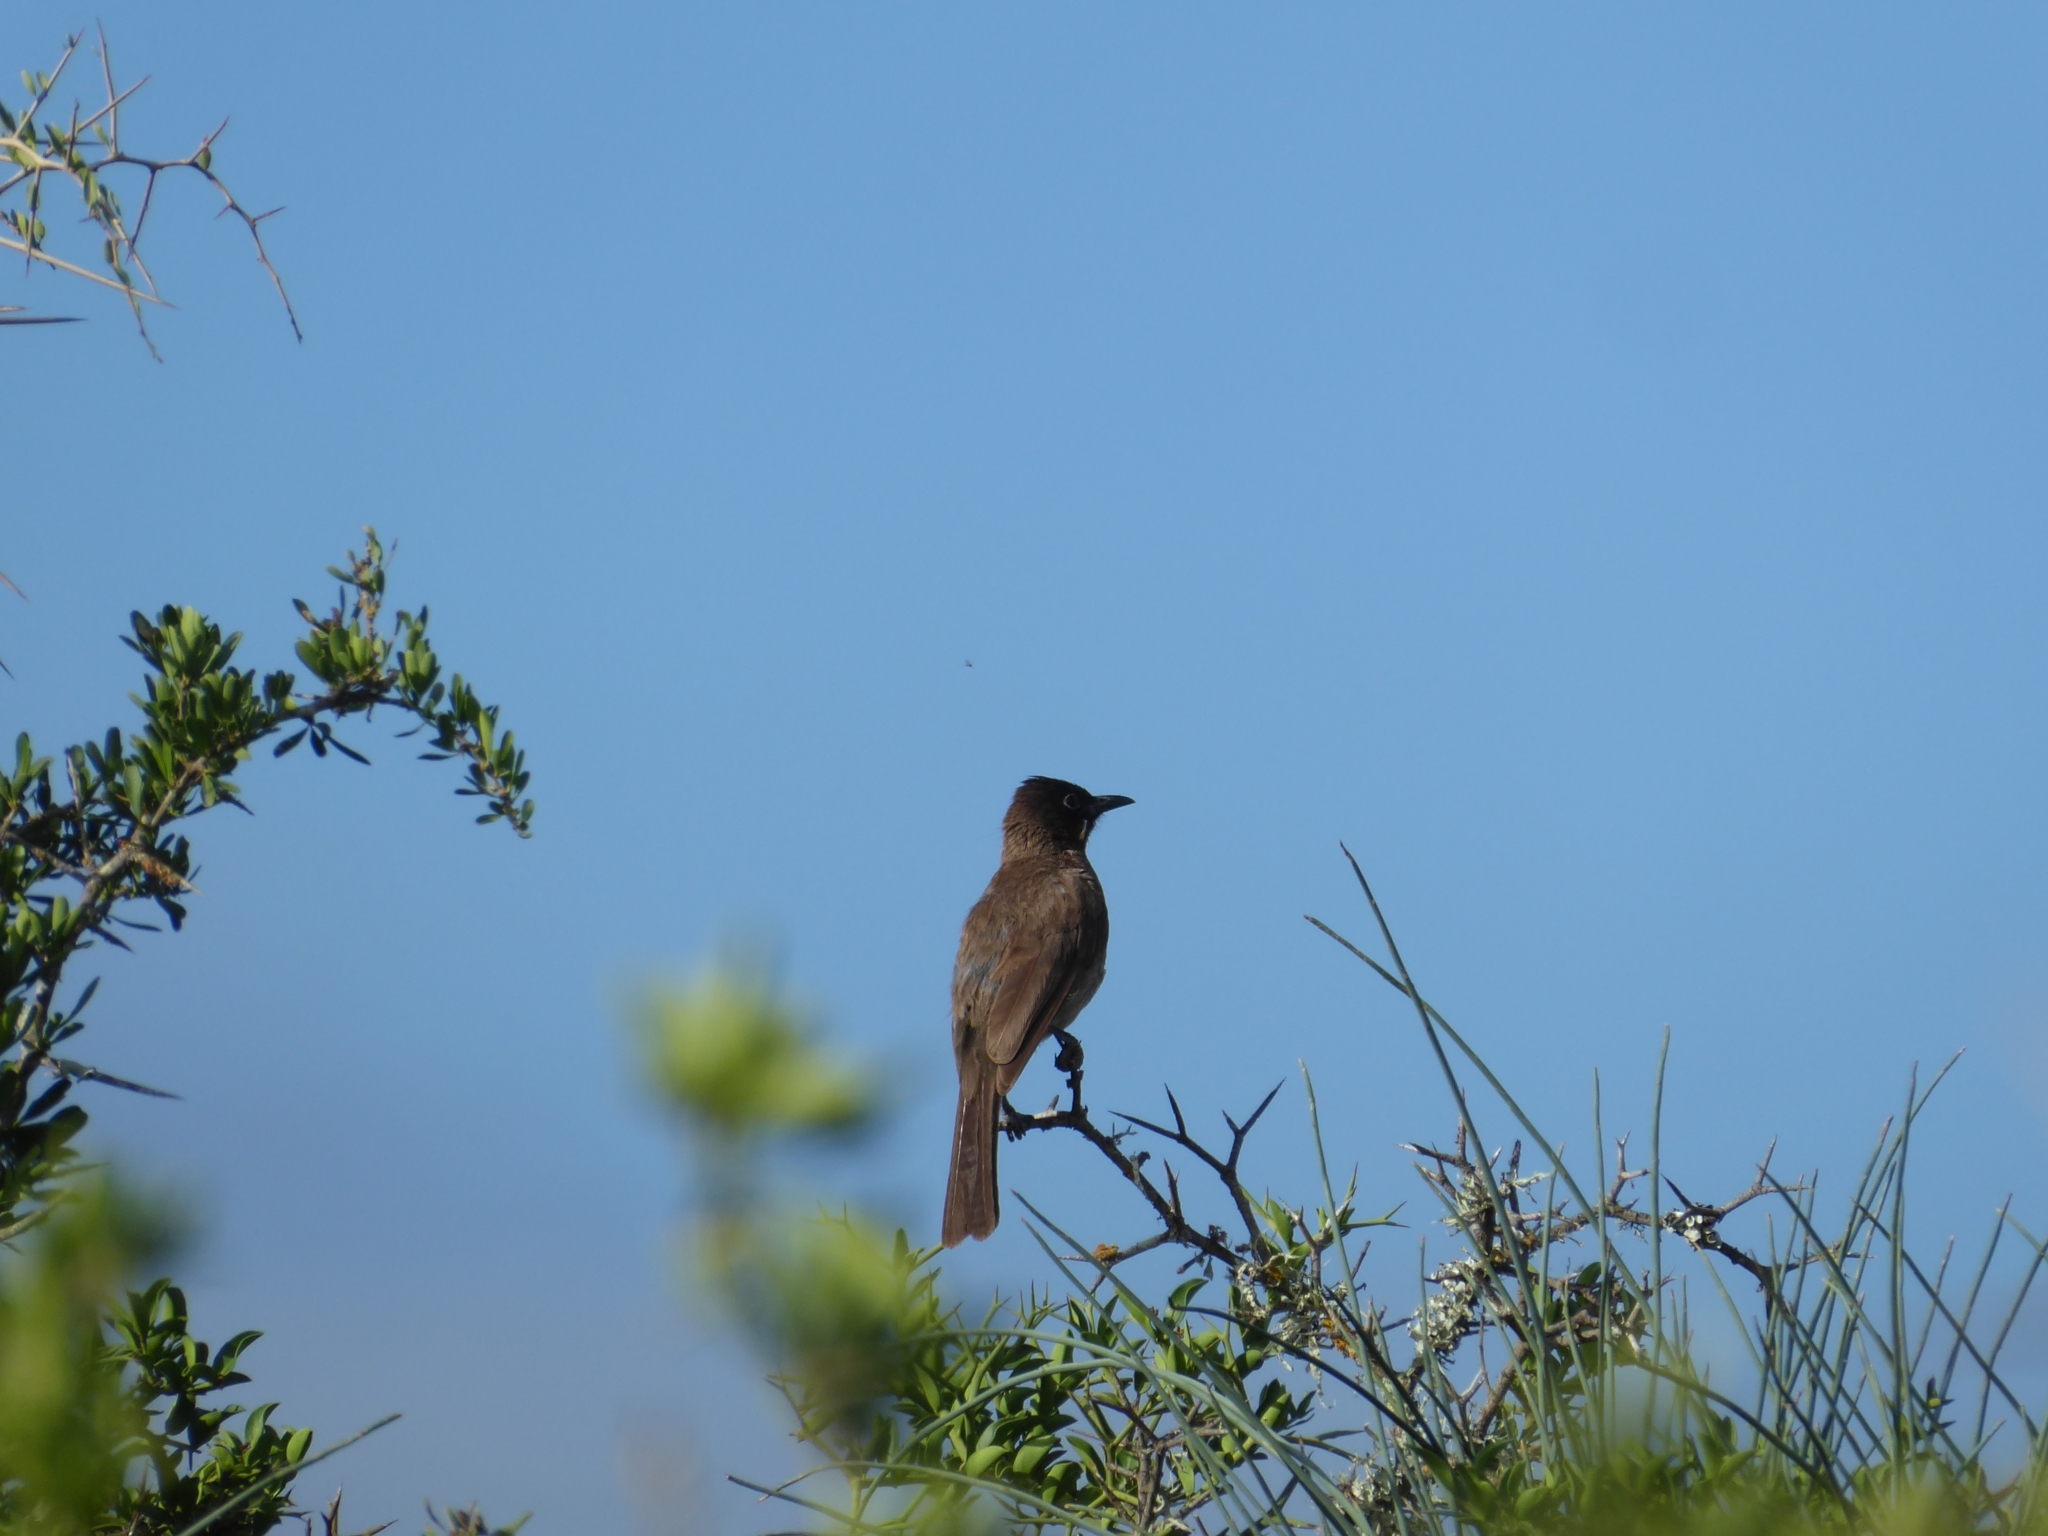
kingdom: Animalia
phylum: Chordata
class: Aves
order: Passeriformes
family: Pycnonotidae
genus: Pycnonotus
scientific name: Pycnonotus capensis
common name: Cape bulbul
